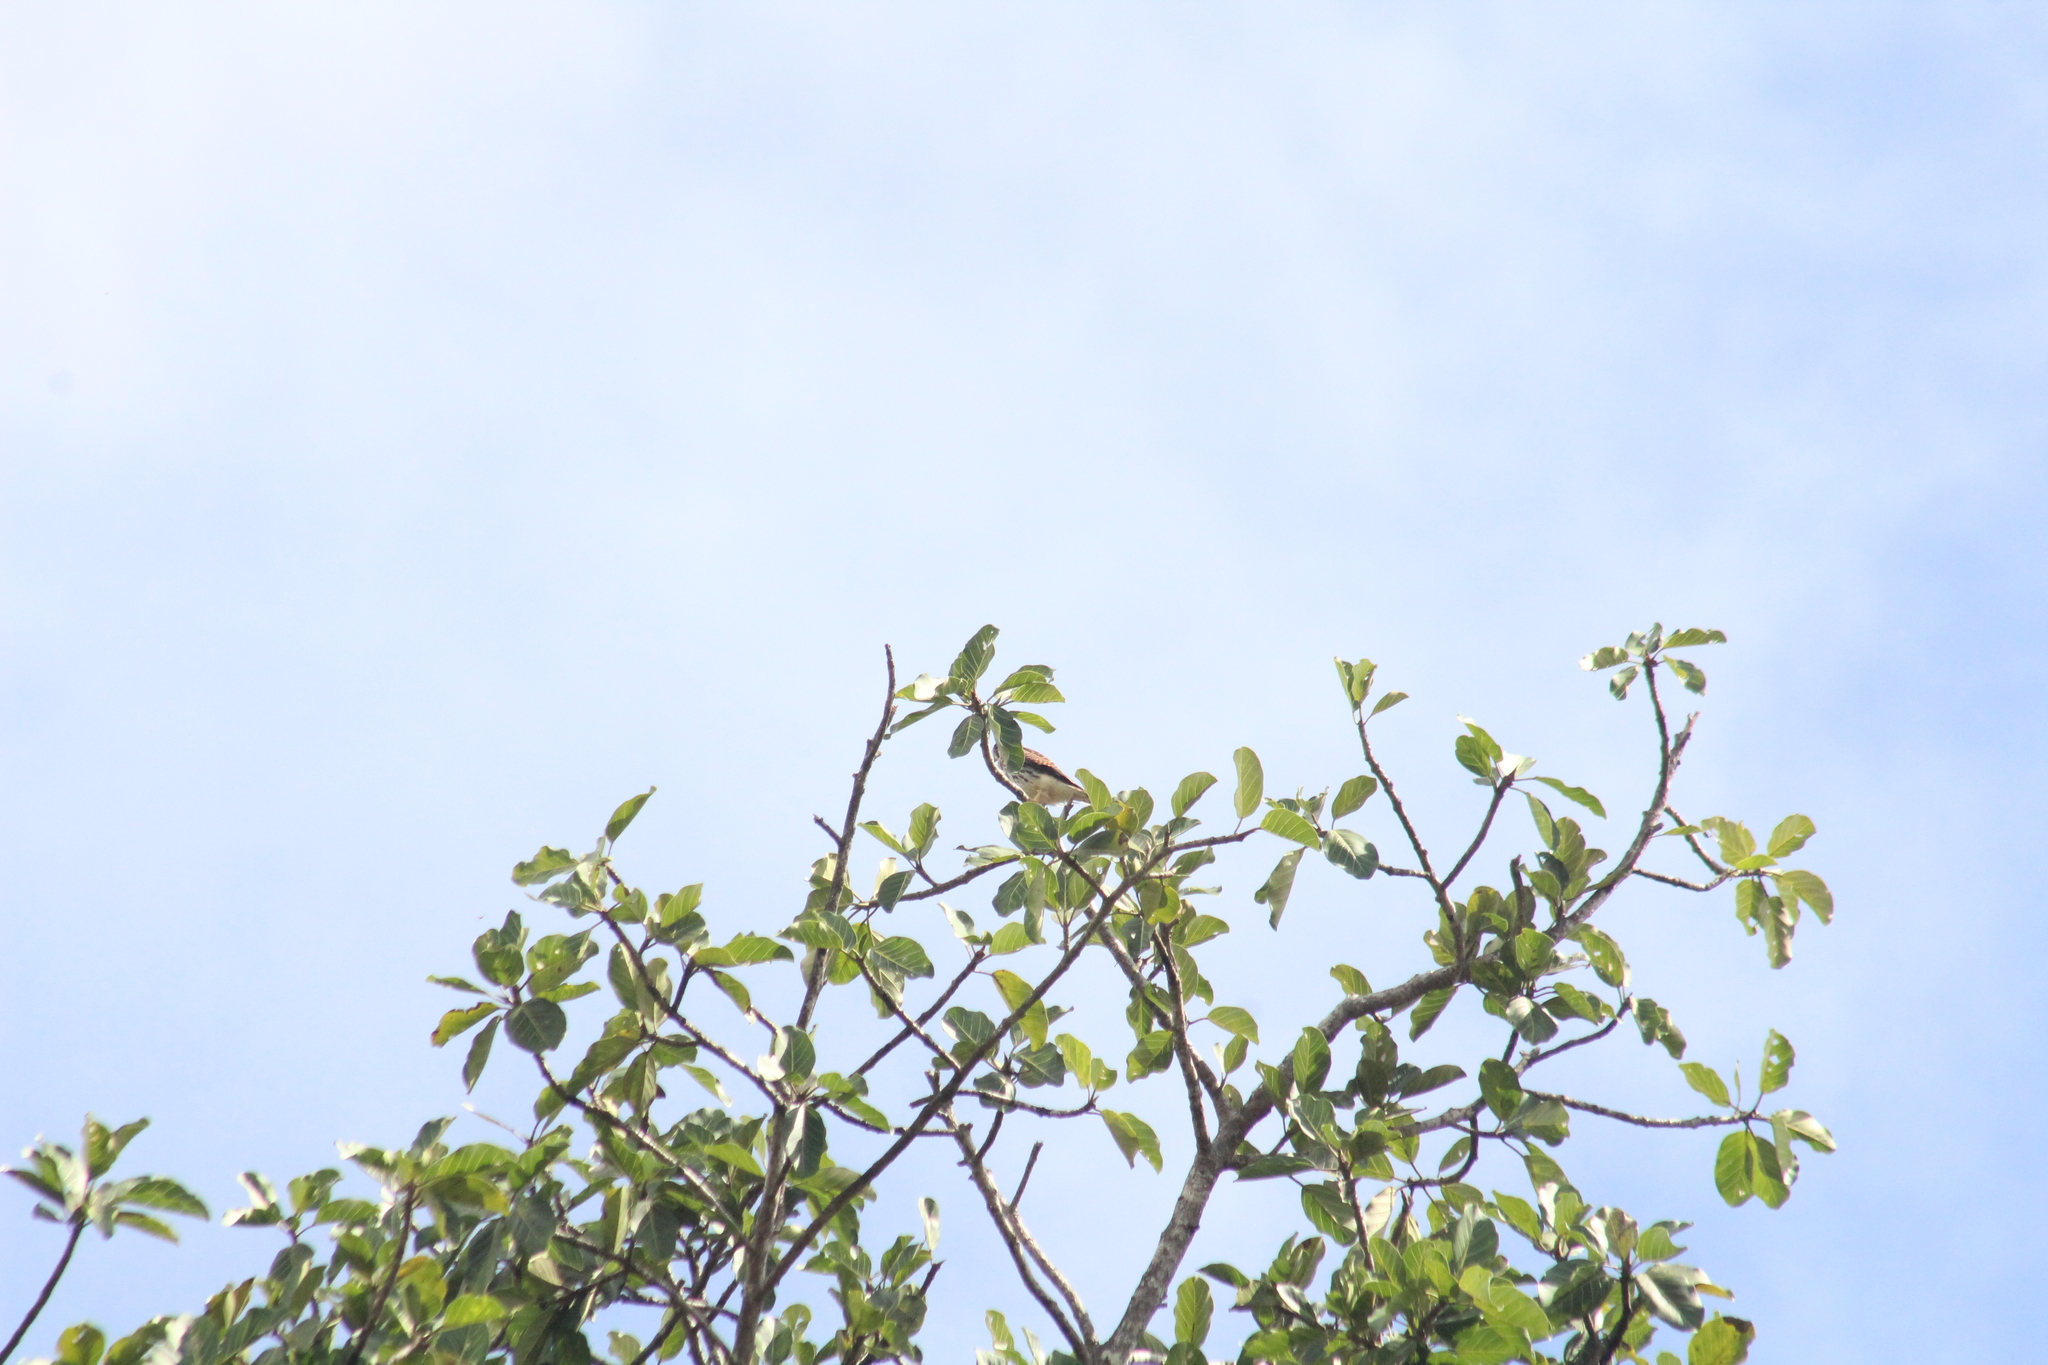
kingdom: Animalia
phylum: Chordata
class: Aves
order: Falconiformes
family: Falconidae
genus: Falco
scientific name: Falco sparverius
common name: American kestrel
